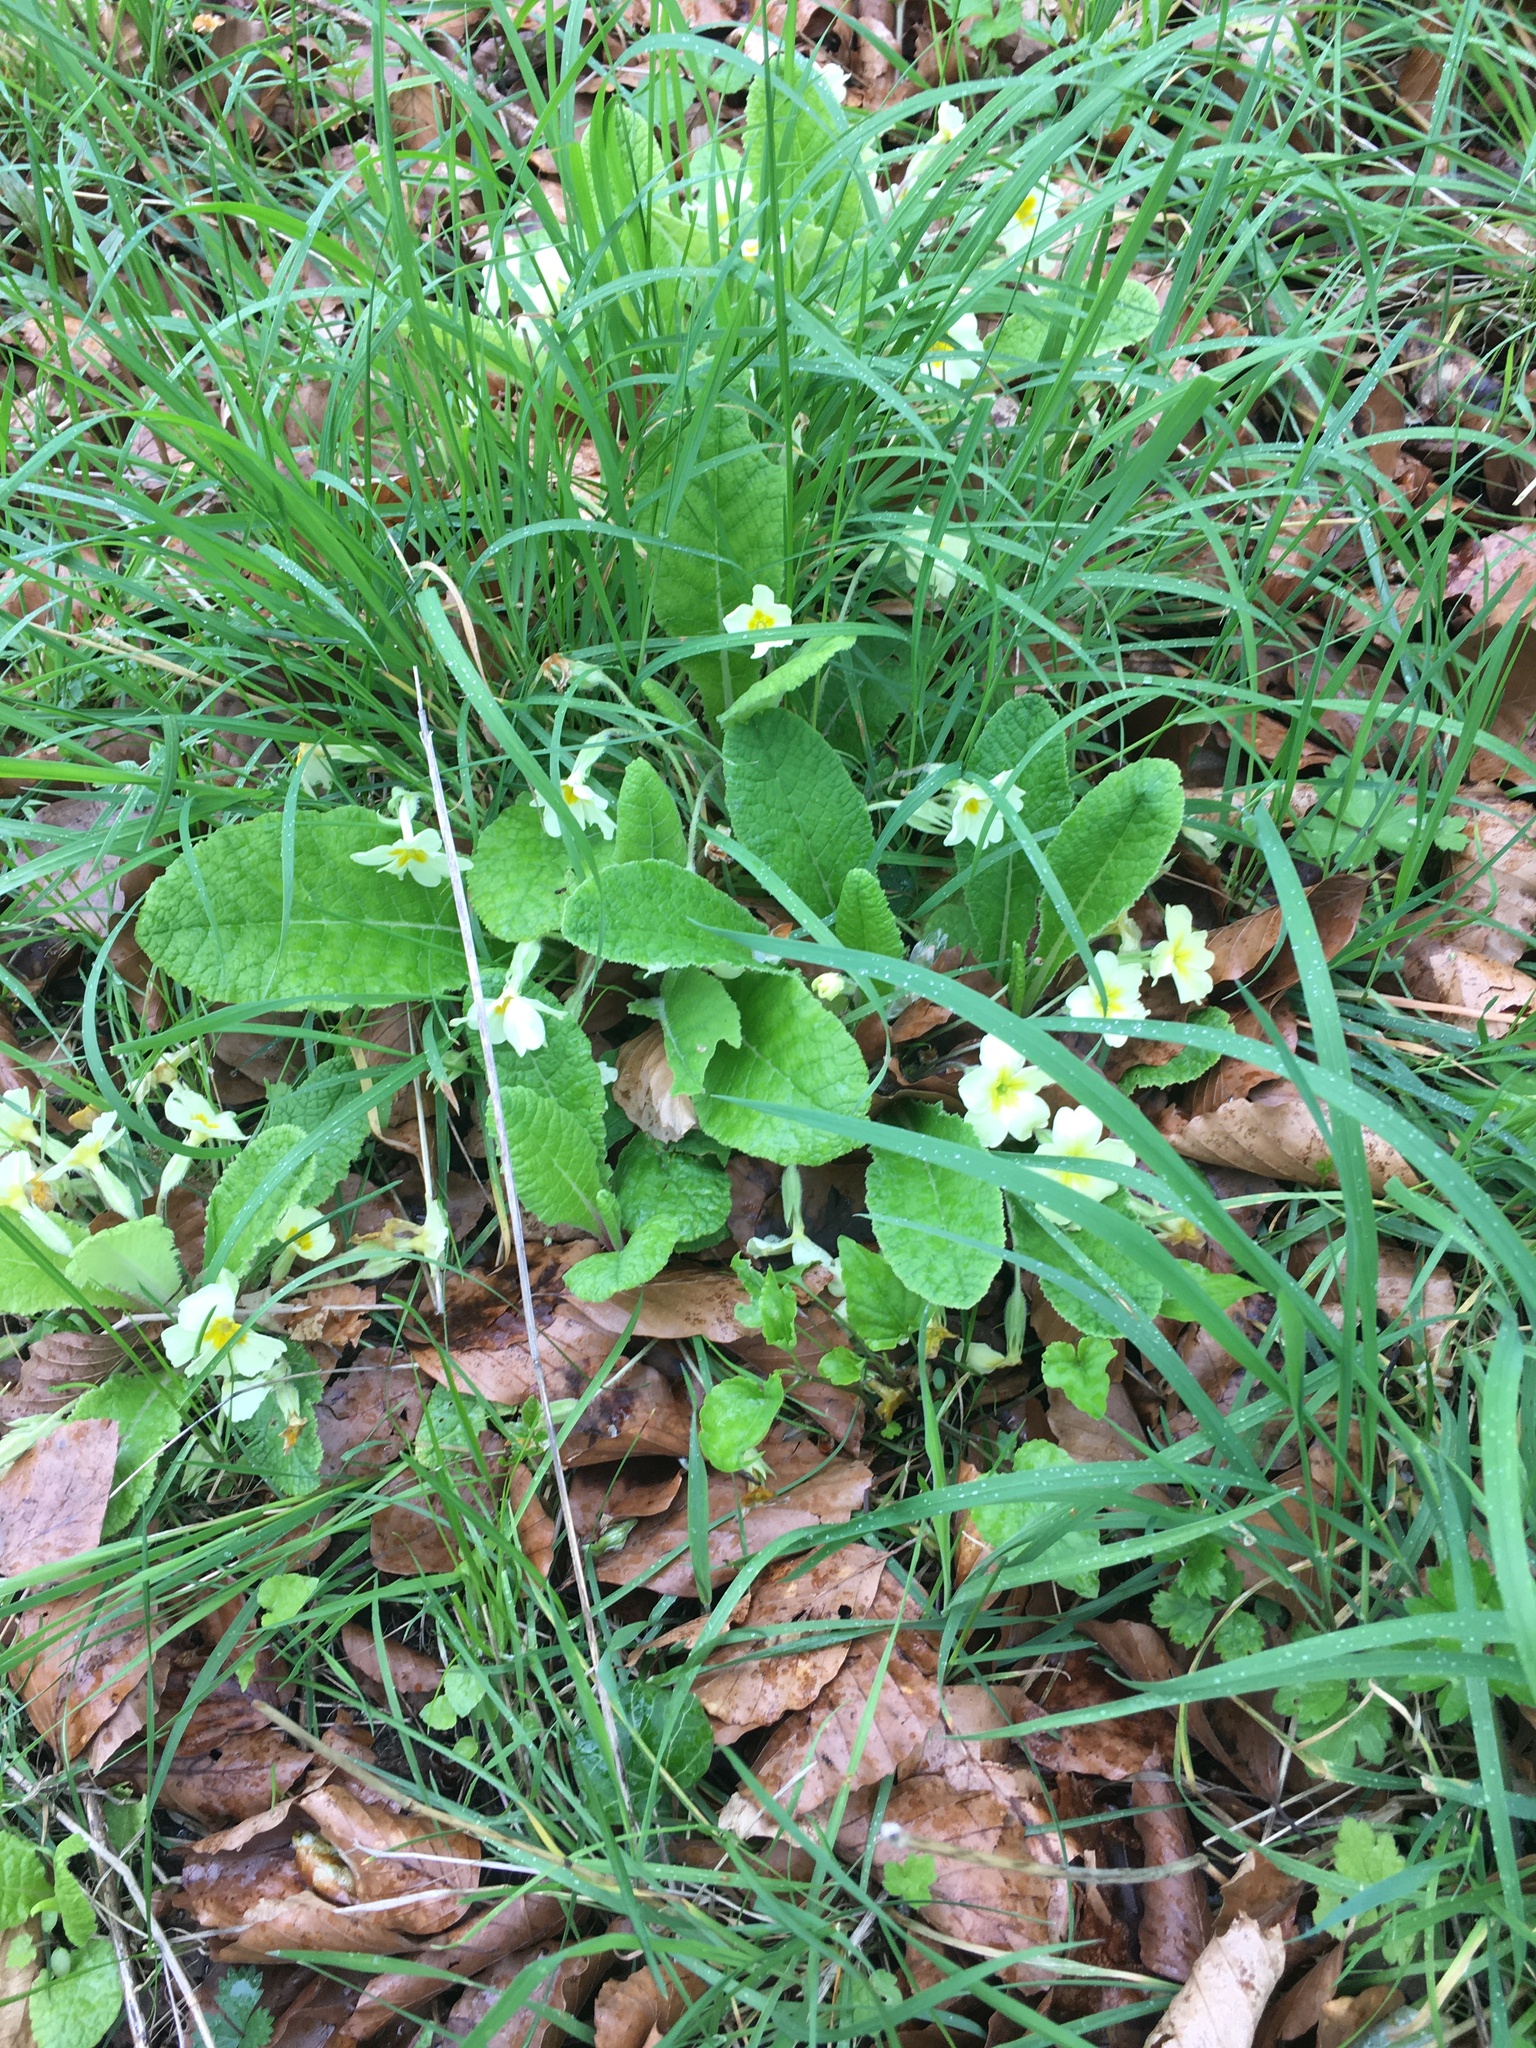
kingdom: Plantae
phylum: Tracheophyta
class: Magnoliopsida
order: Ericales
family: Primulaceae
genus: Primula
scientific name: Primula vulgaris
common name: Primrose
